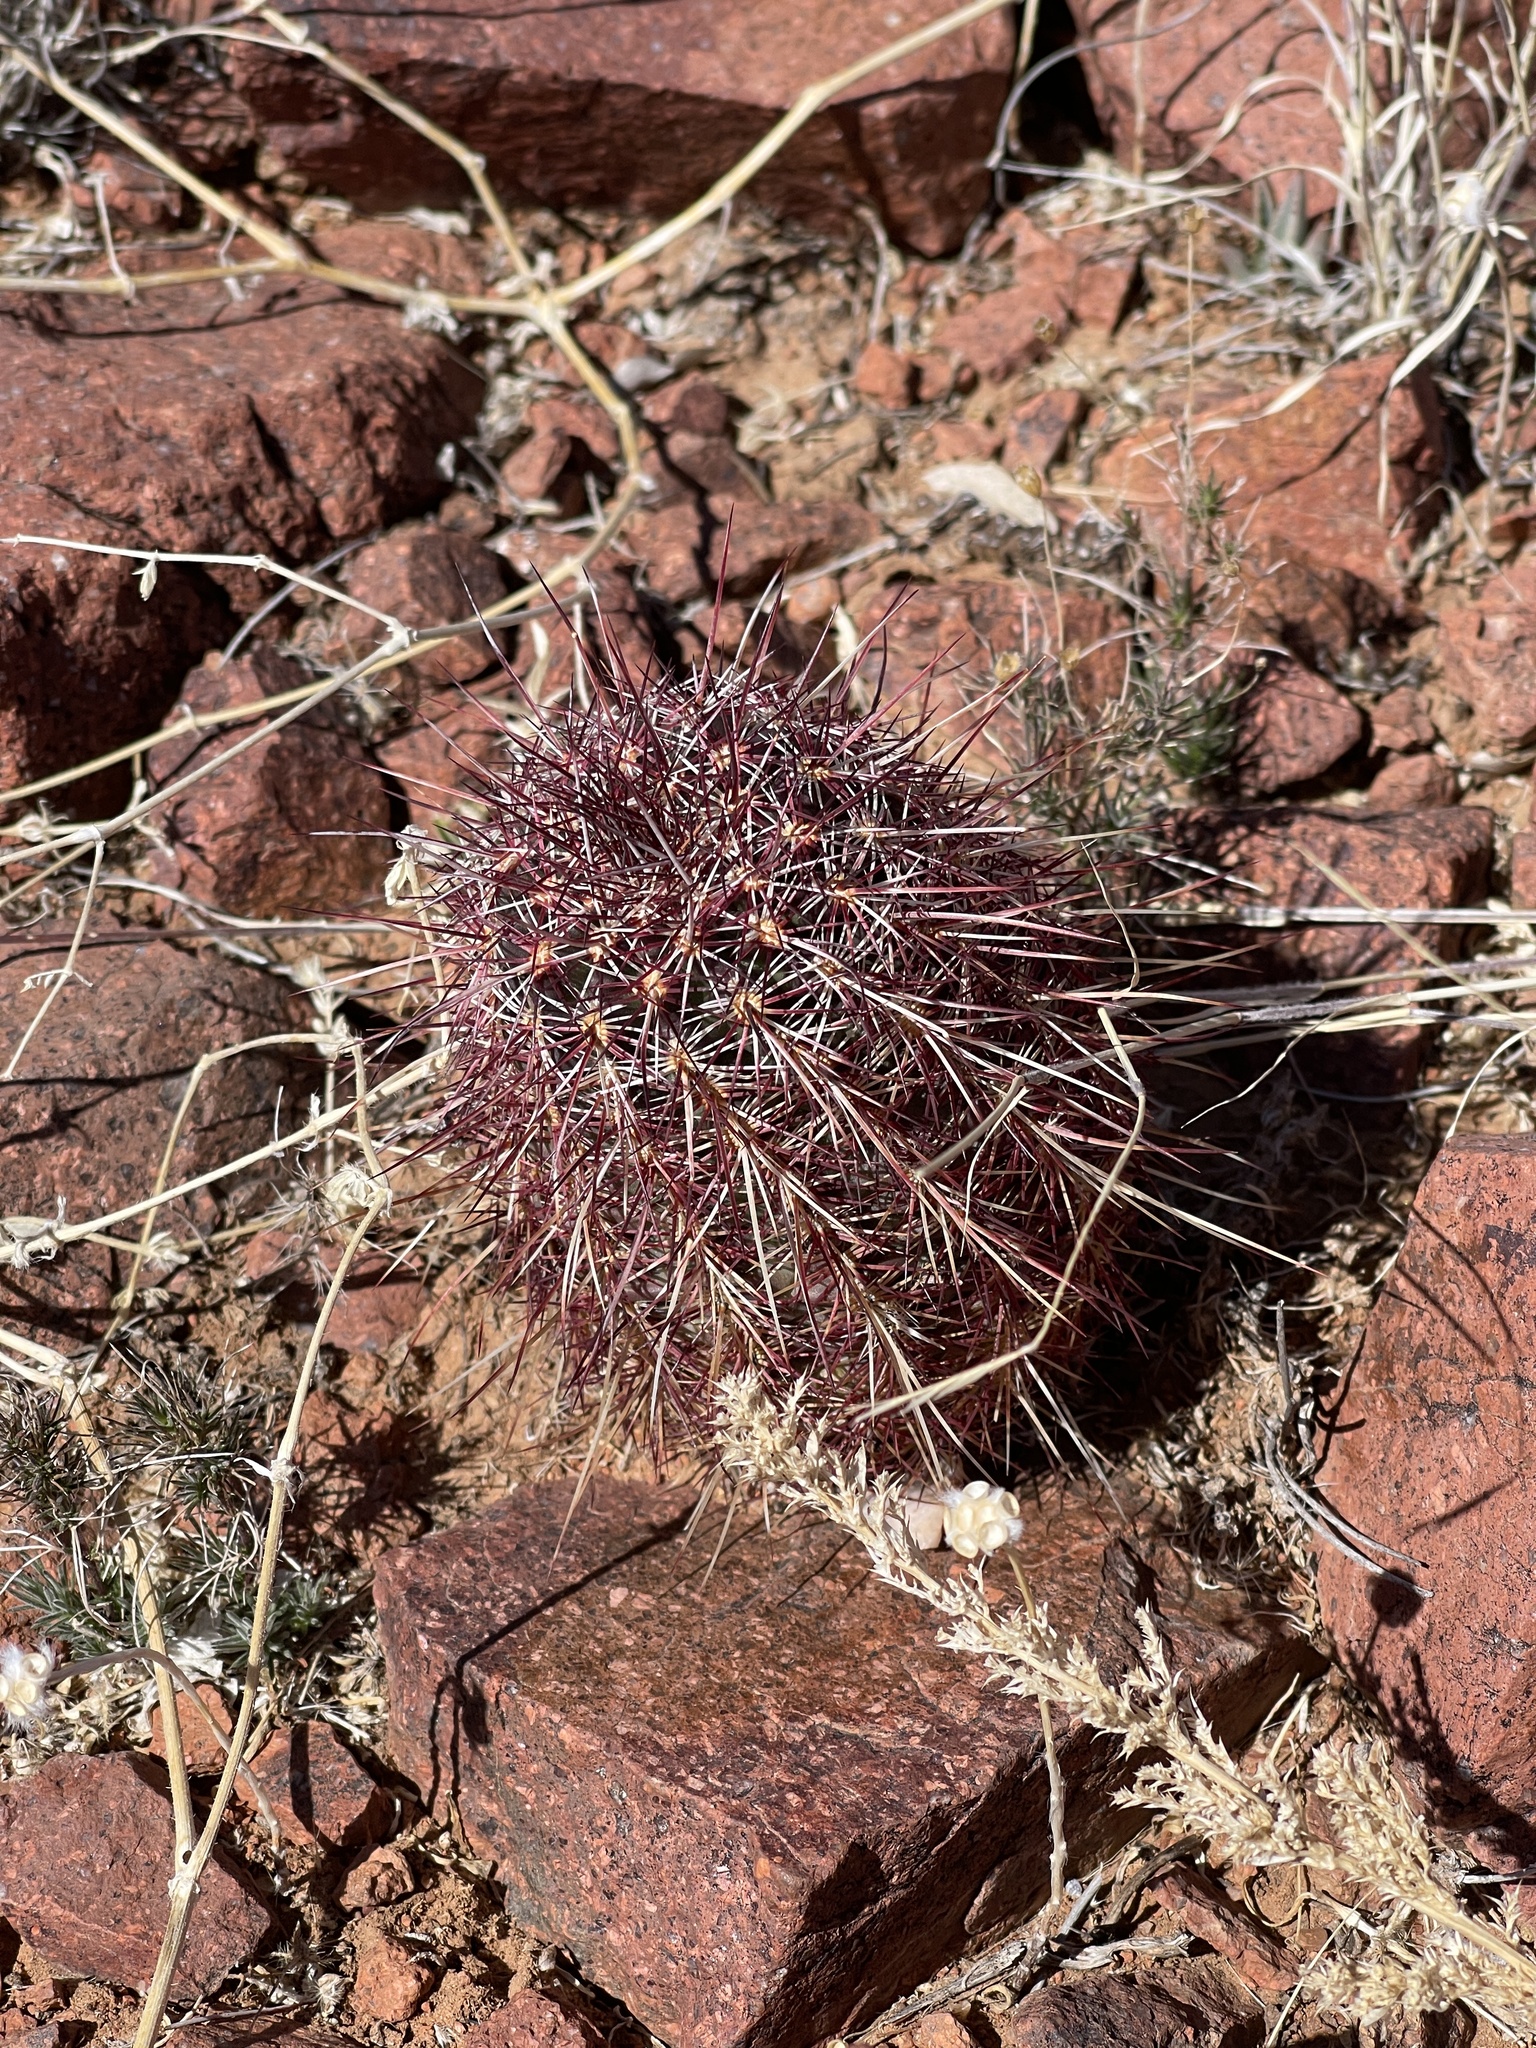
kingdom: Plantae
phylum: Tracheophyta
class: Magnoliopsida
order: Caryophyllales
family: Cactaceae
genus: Echinocereus
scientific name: Echinocereus viridiflorus
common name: Nylon hedgehog cactus
